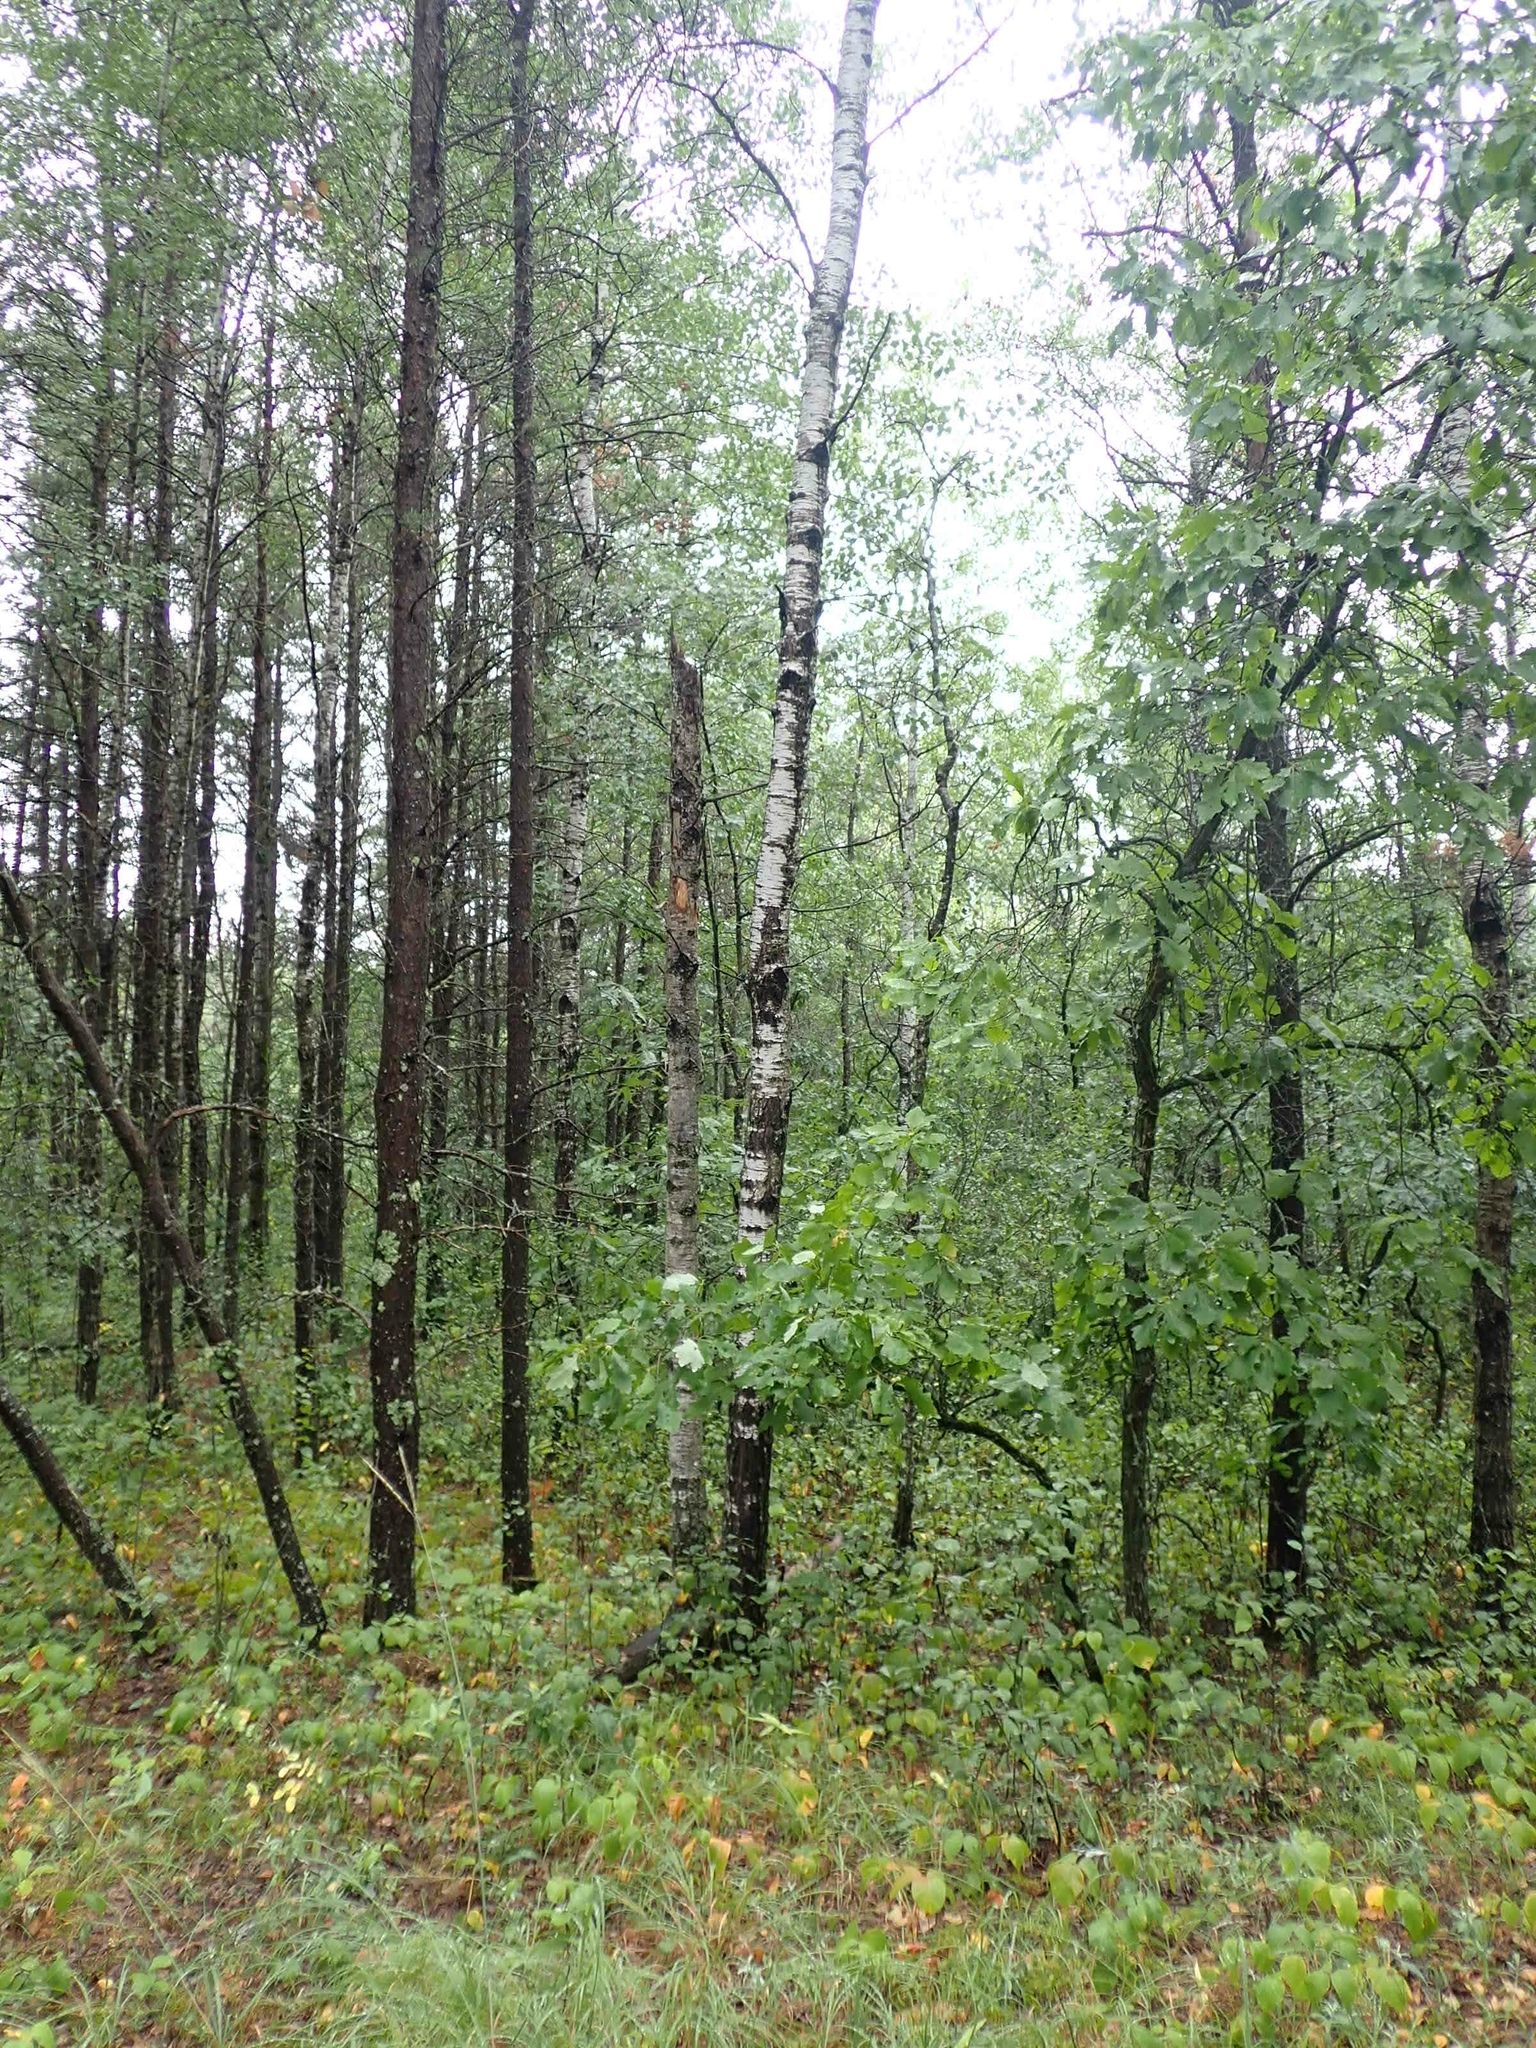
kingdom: Plantae
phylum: Tracheophyta
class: Magnoliopsida
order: Malpighiales
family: Salicaceae
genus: Populus
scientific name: Populus tremuloides
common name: Quaking aspen
